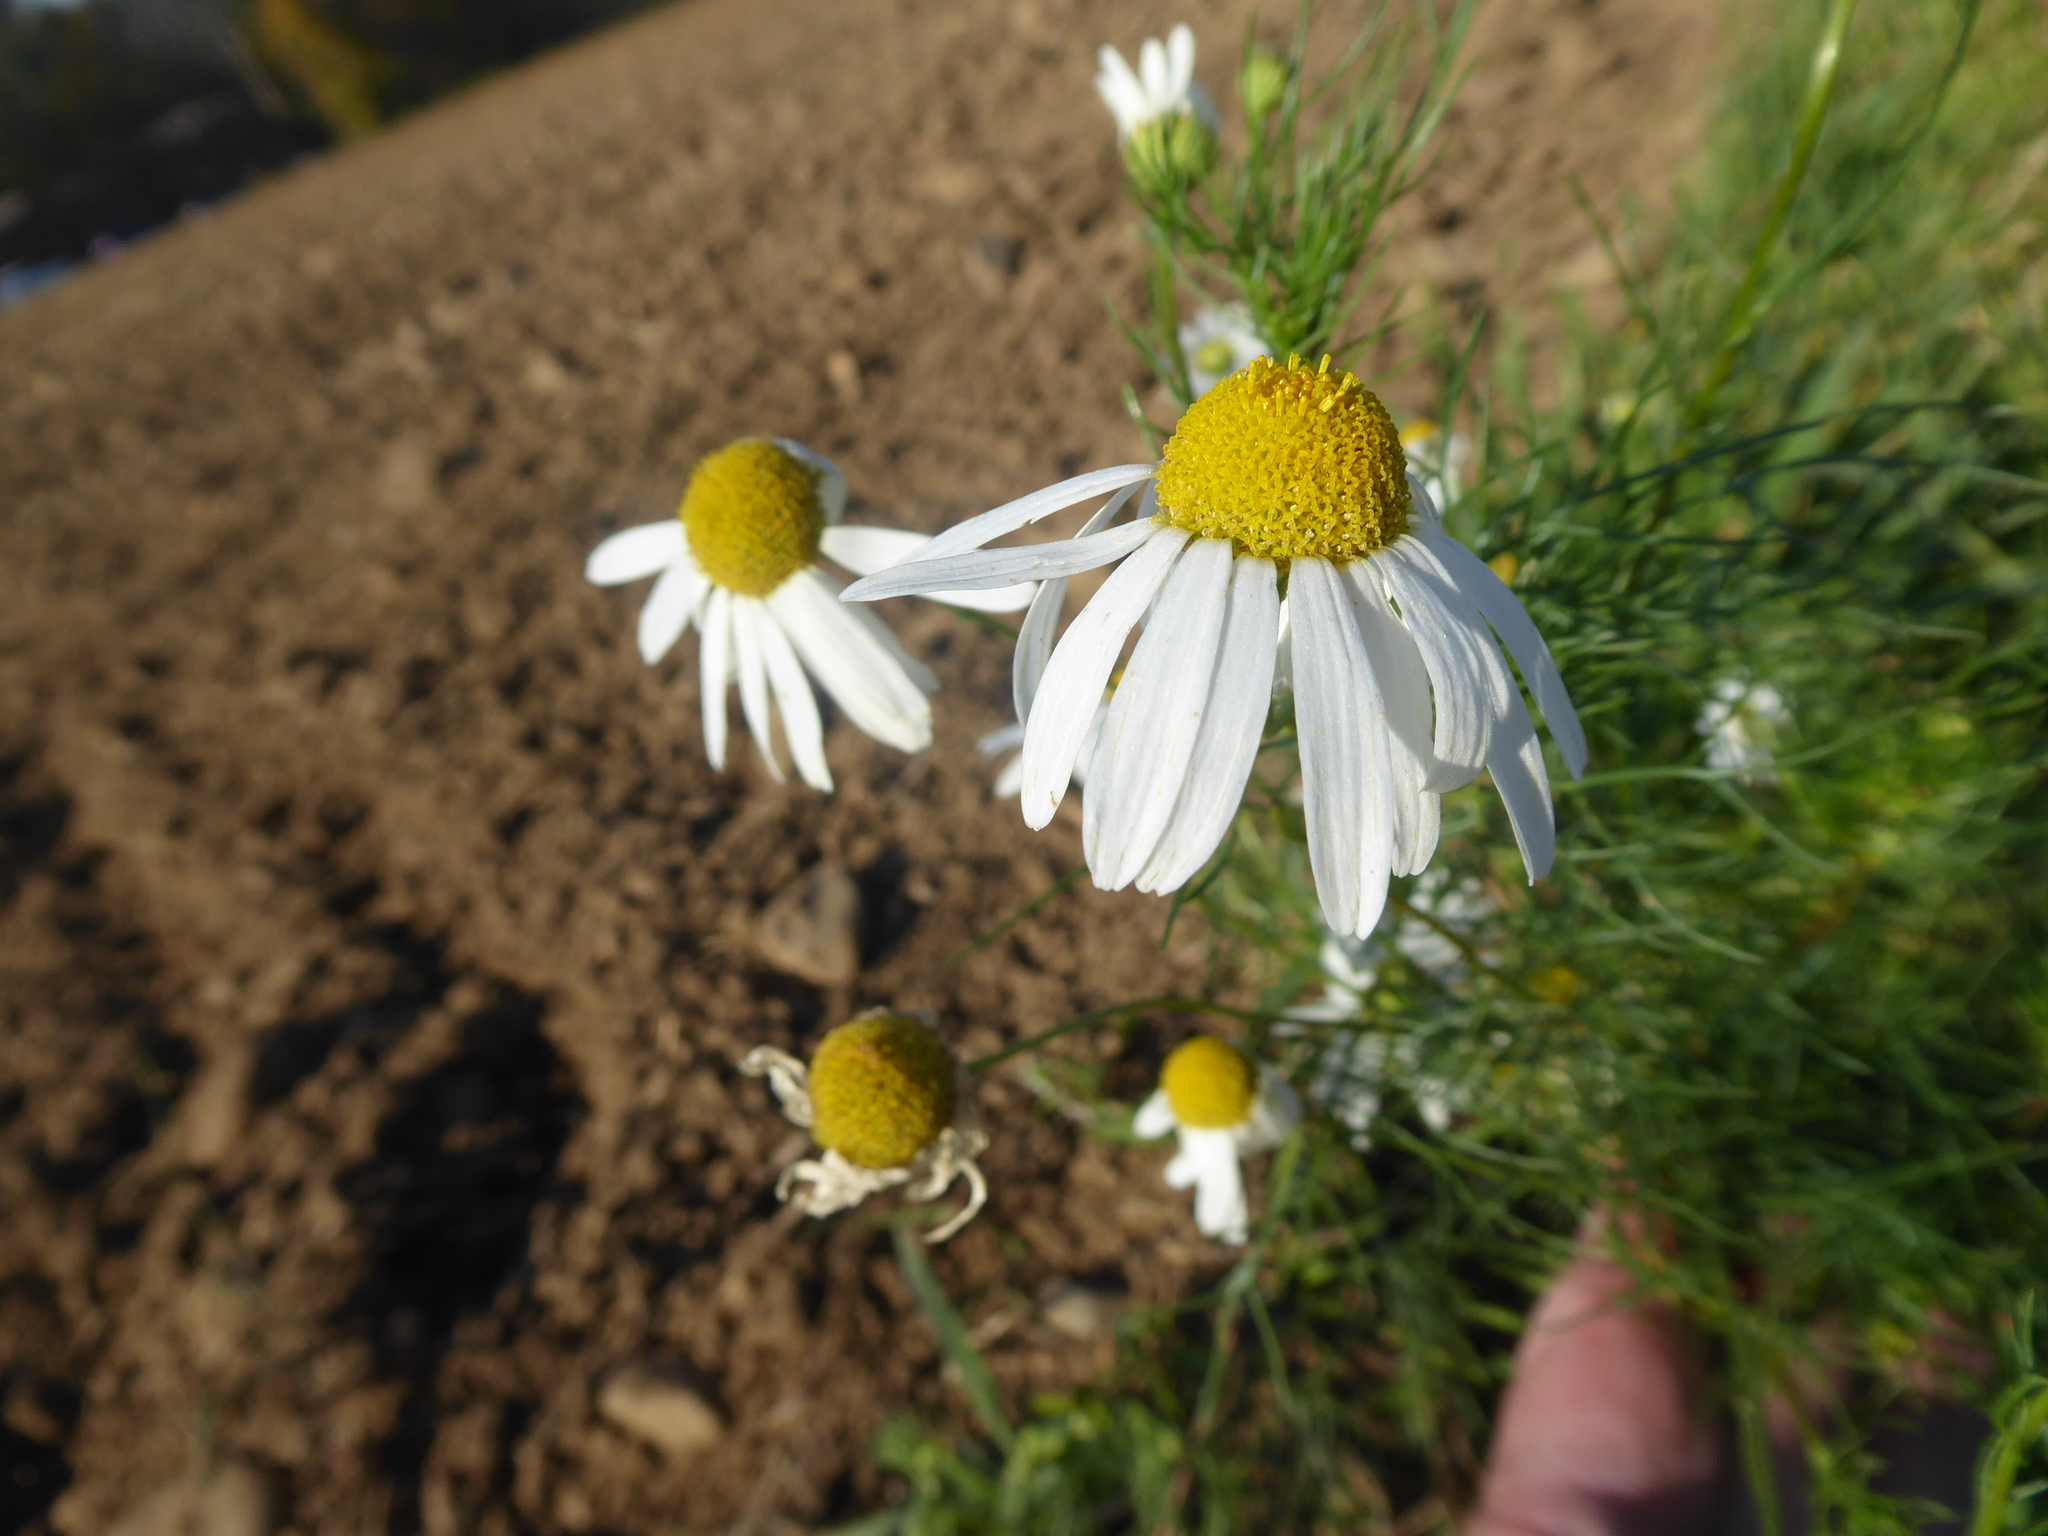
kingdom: Plantae
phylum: Tracheophyta
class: Magnoliopsida
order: Asterales
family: Asteraceae
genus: Tripleurospermum
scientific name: Tripleurospermum inodorum
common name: Scentless mayweed
